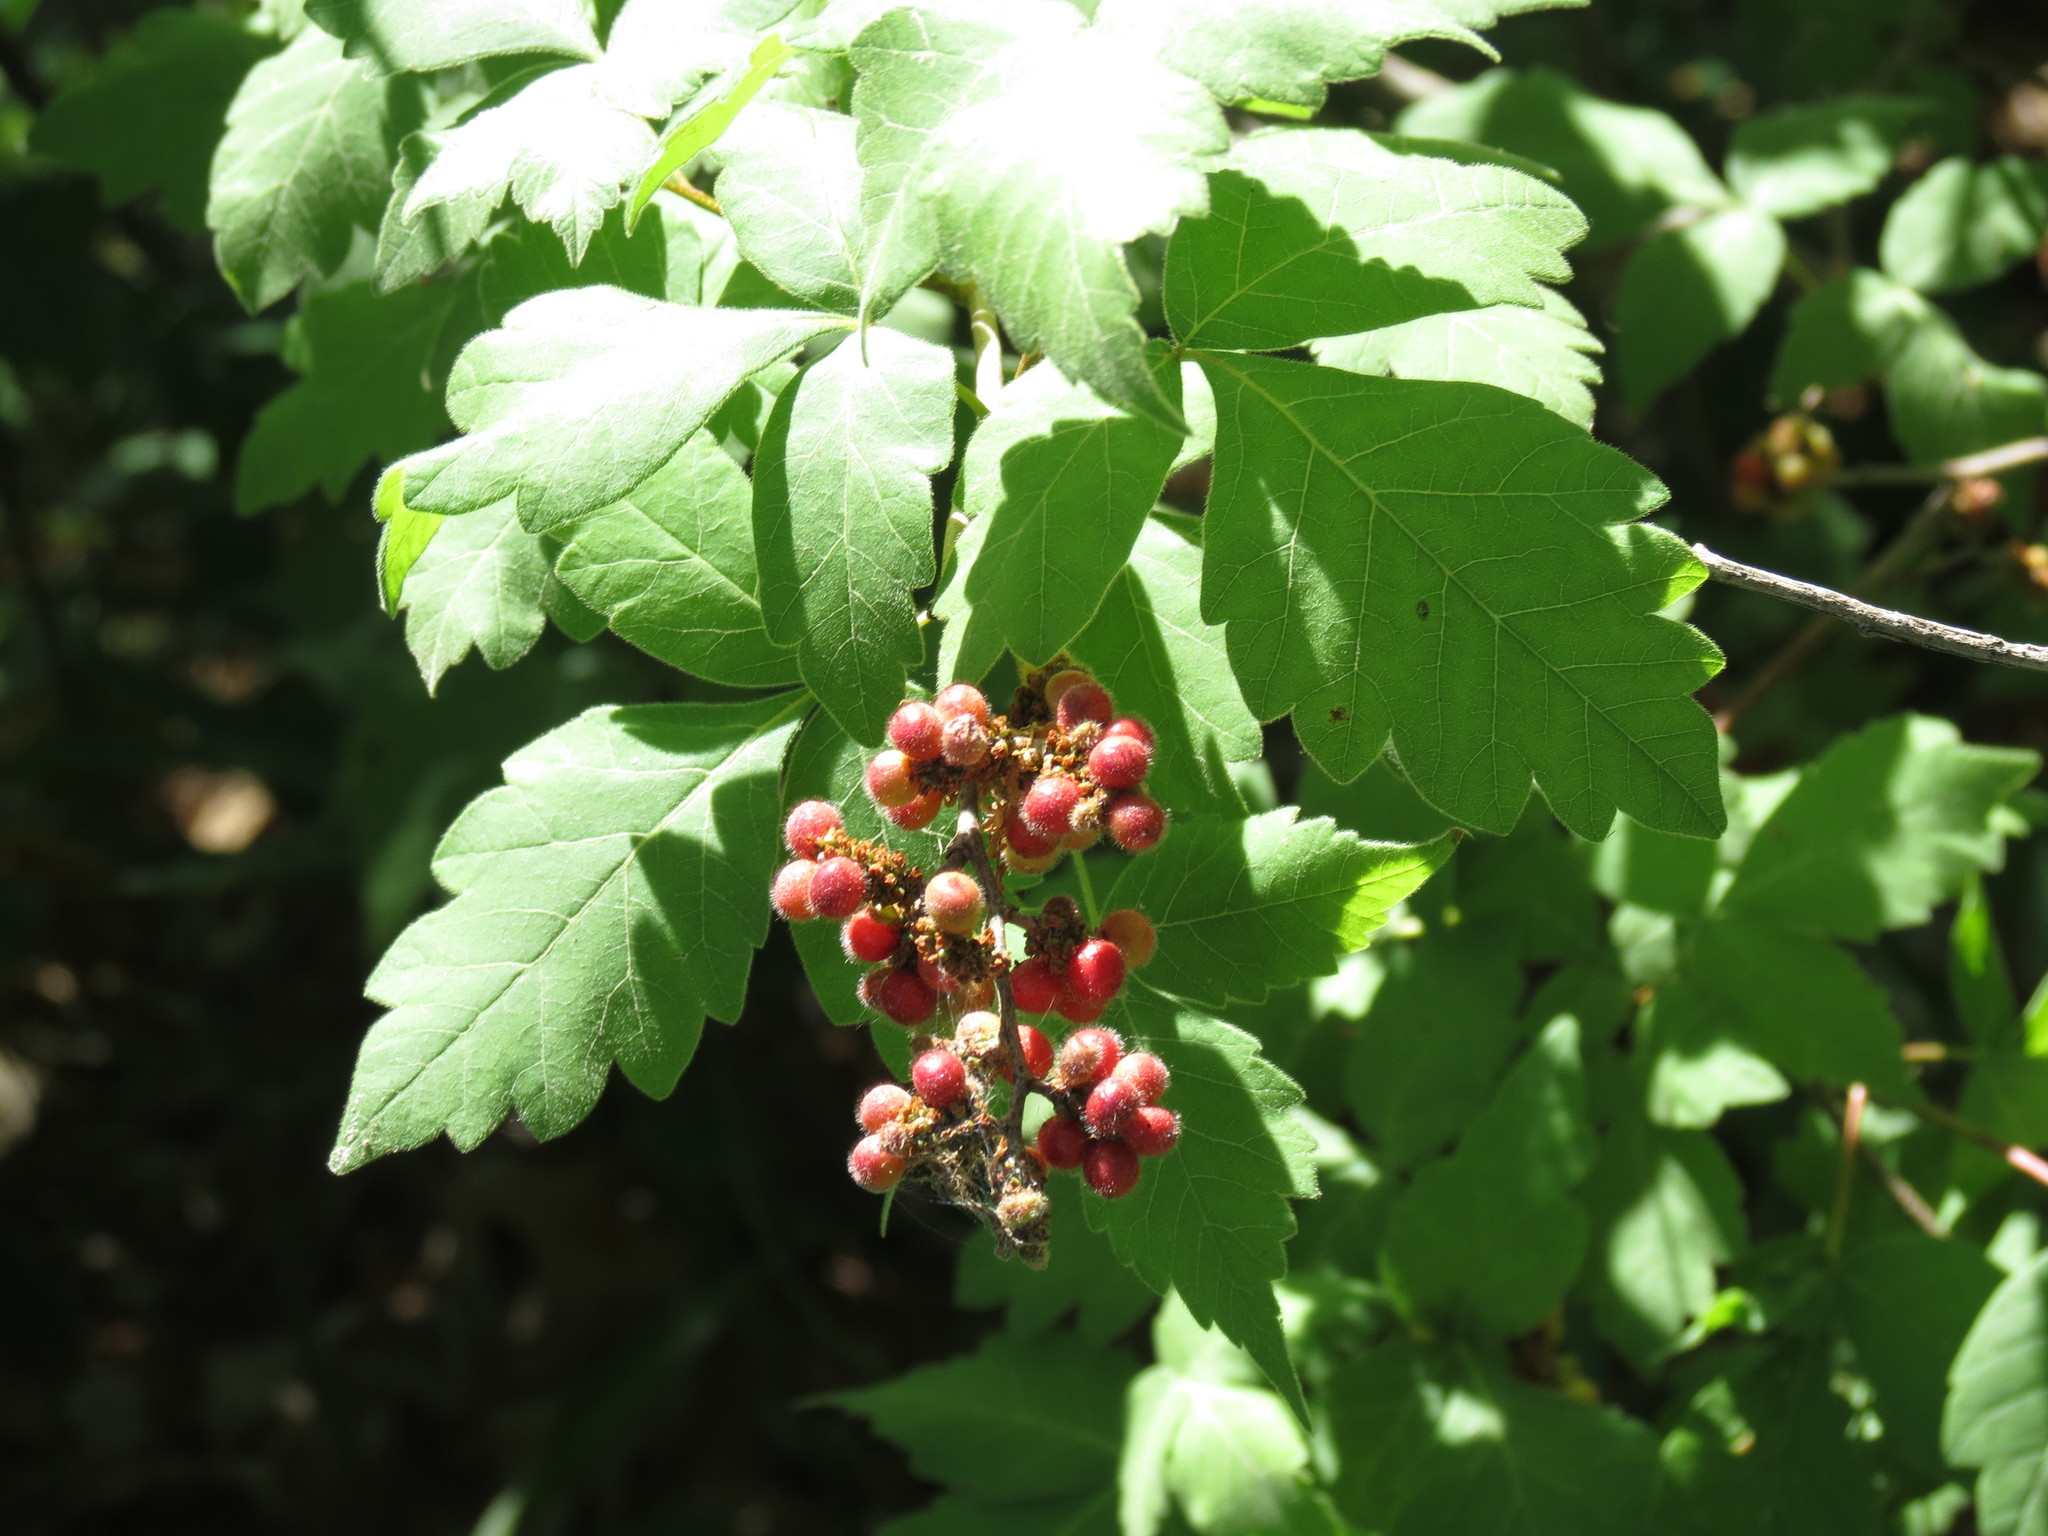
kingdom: Plantae
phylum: Tracheophyta
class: Magnoliopsida
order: Sapindales
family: Anacardiaceae
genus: Rhus
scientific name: Rhus aromatica
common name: Aromatic sumac
